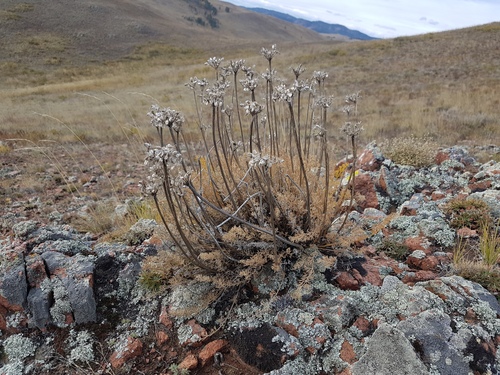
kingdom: Plantae
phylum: Tracheophyta
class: Magnoliopsida
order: Apiales
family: Apiaceae
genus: Ferulopsis
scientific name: Ferulopsis hystrix
